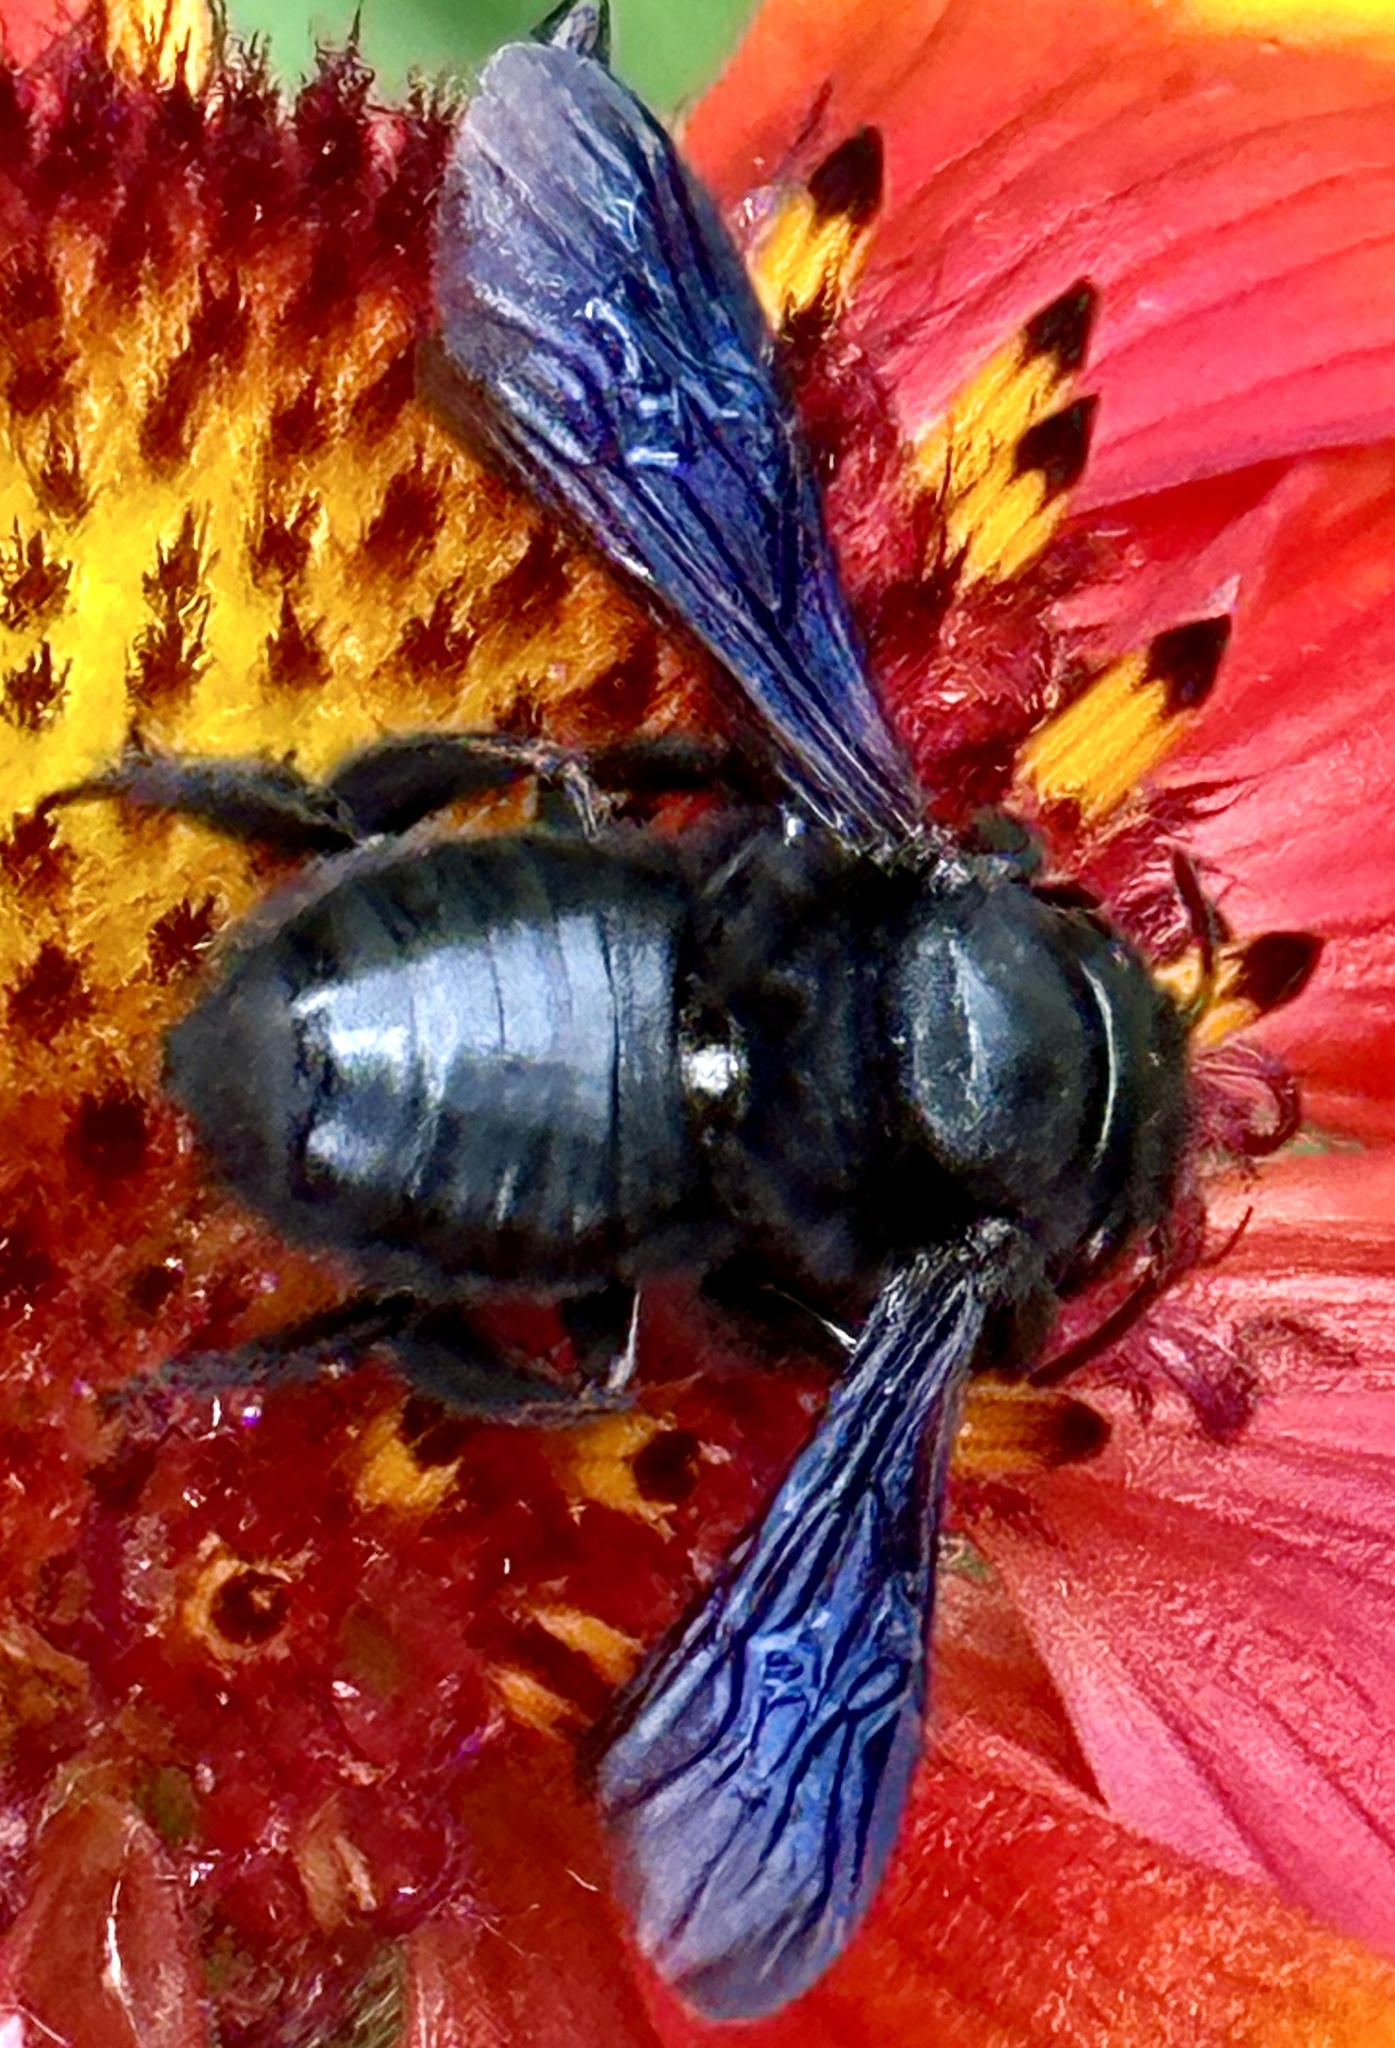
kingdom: Animalia
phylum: Arthropoda
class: Insecta
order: Hymenoptera
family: Megachilidae
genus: Megachile
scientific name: Megachile xylocopoides
